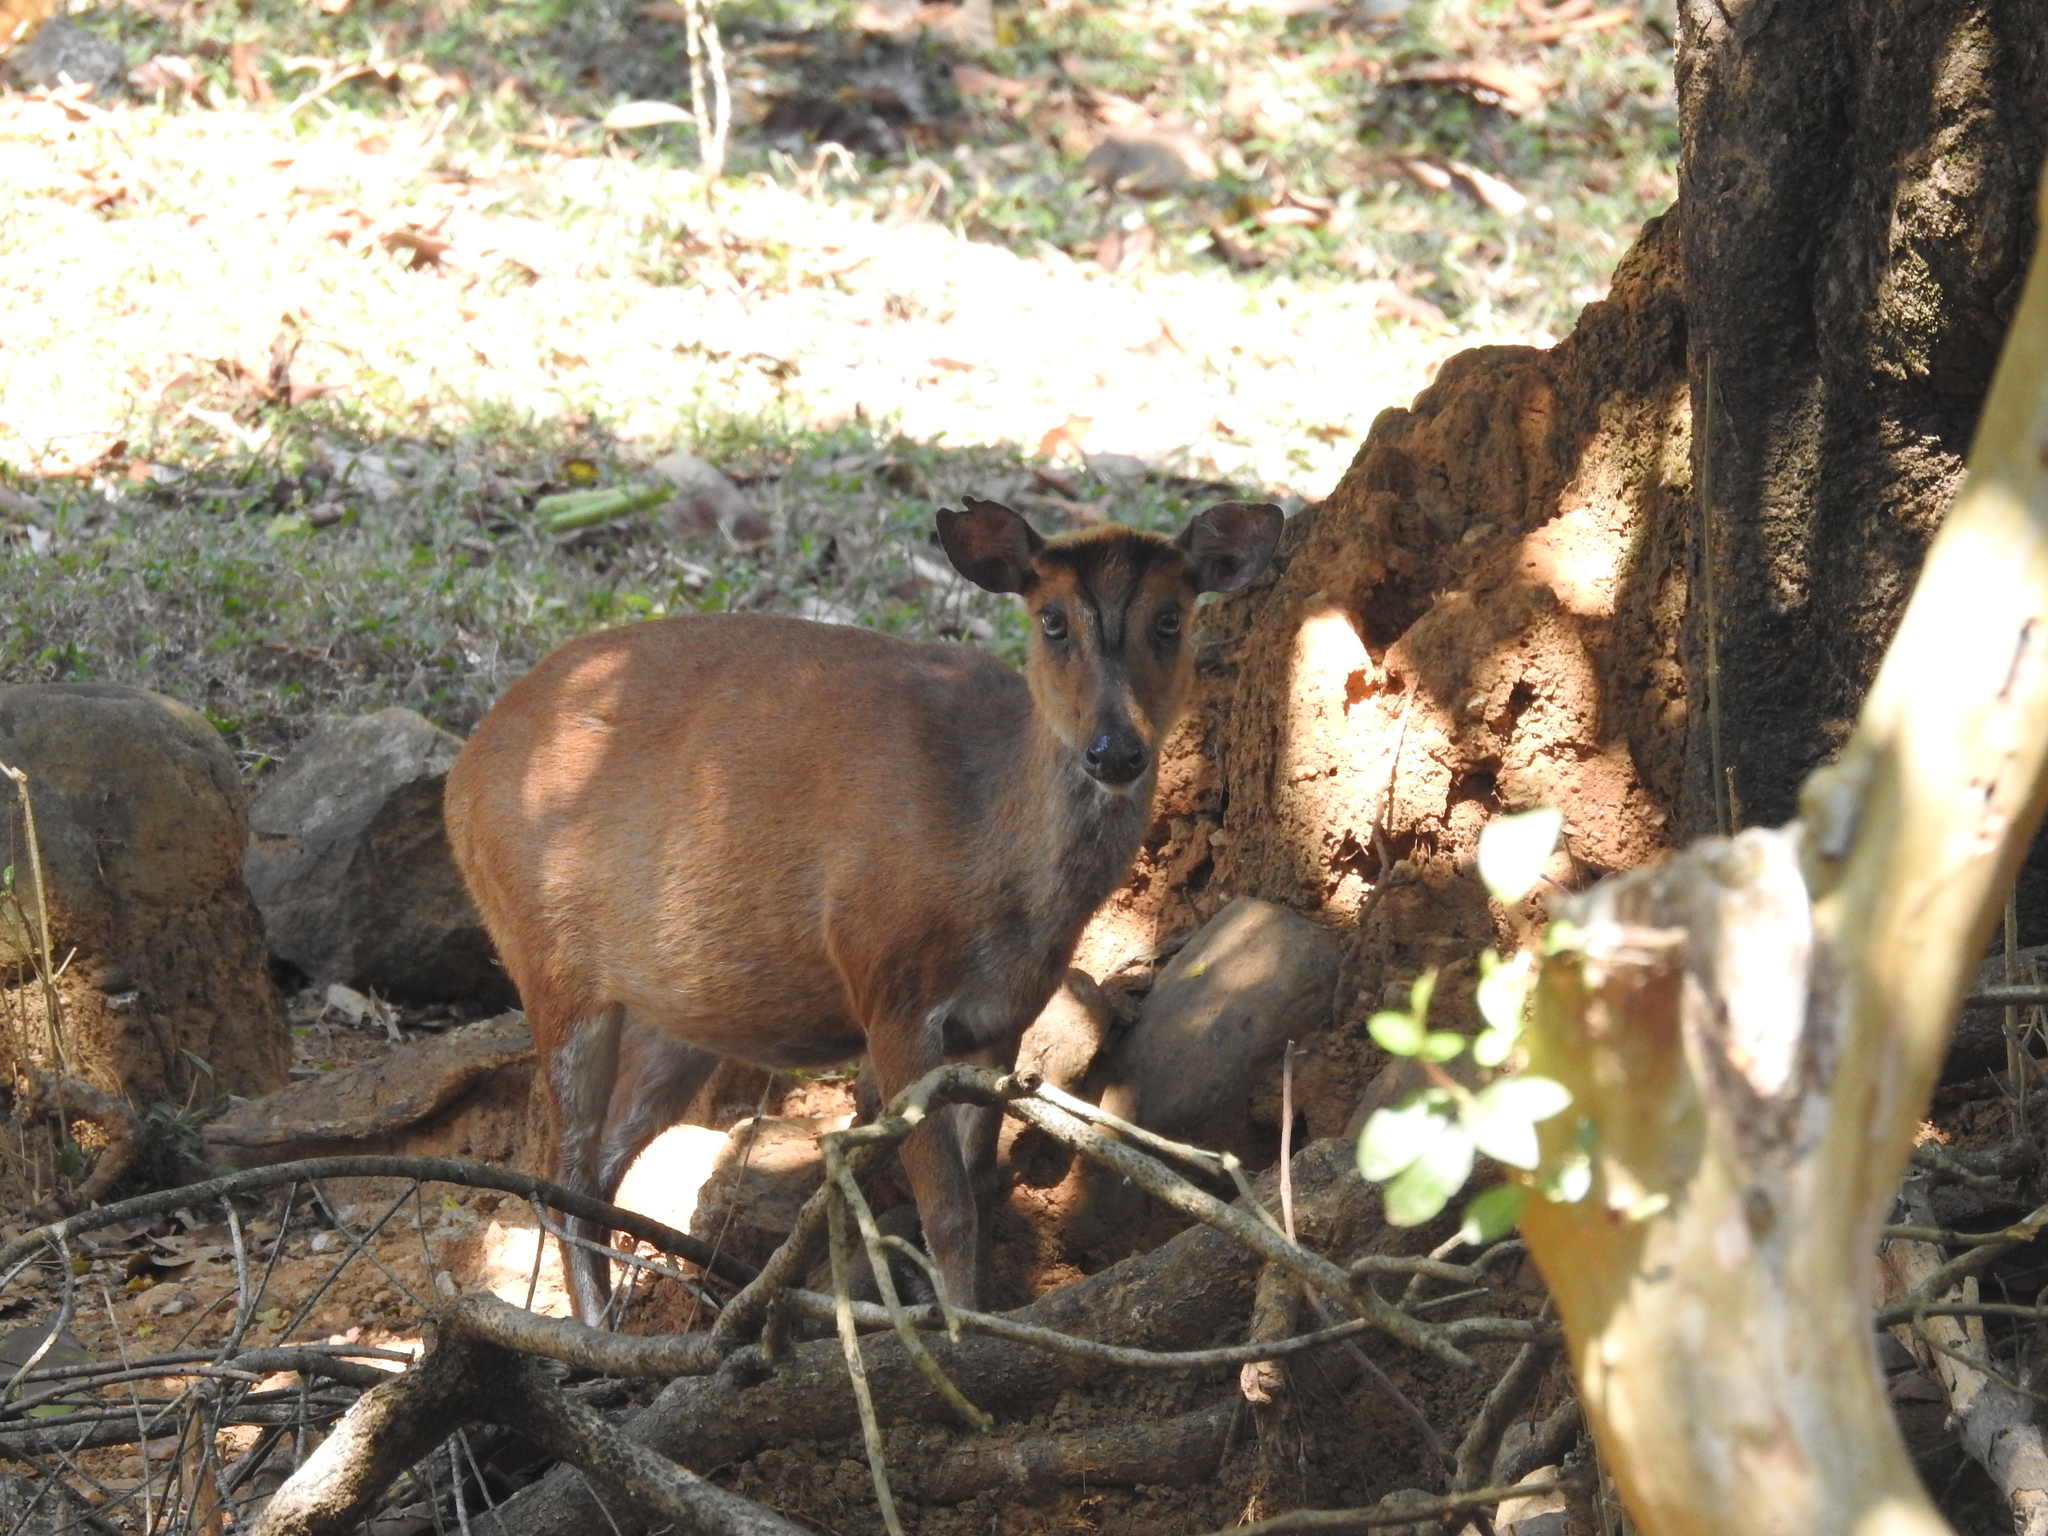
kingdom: Animalia
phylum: Chordata
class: Mammalia
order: Artiodactyla
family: Cervidae
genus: Muntiacus
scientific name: Muntiacus muntjak
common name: Indian muntjac
